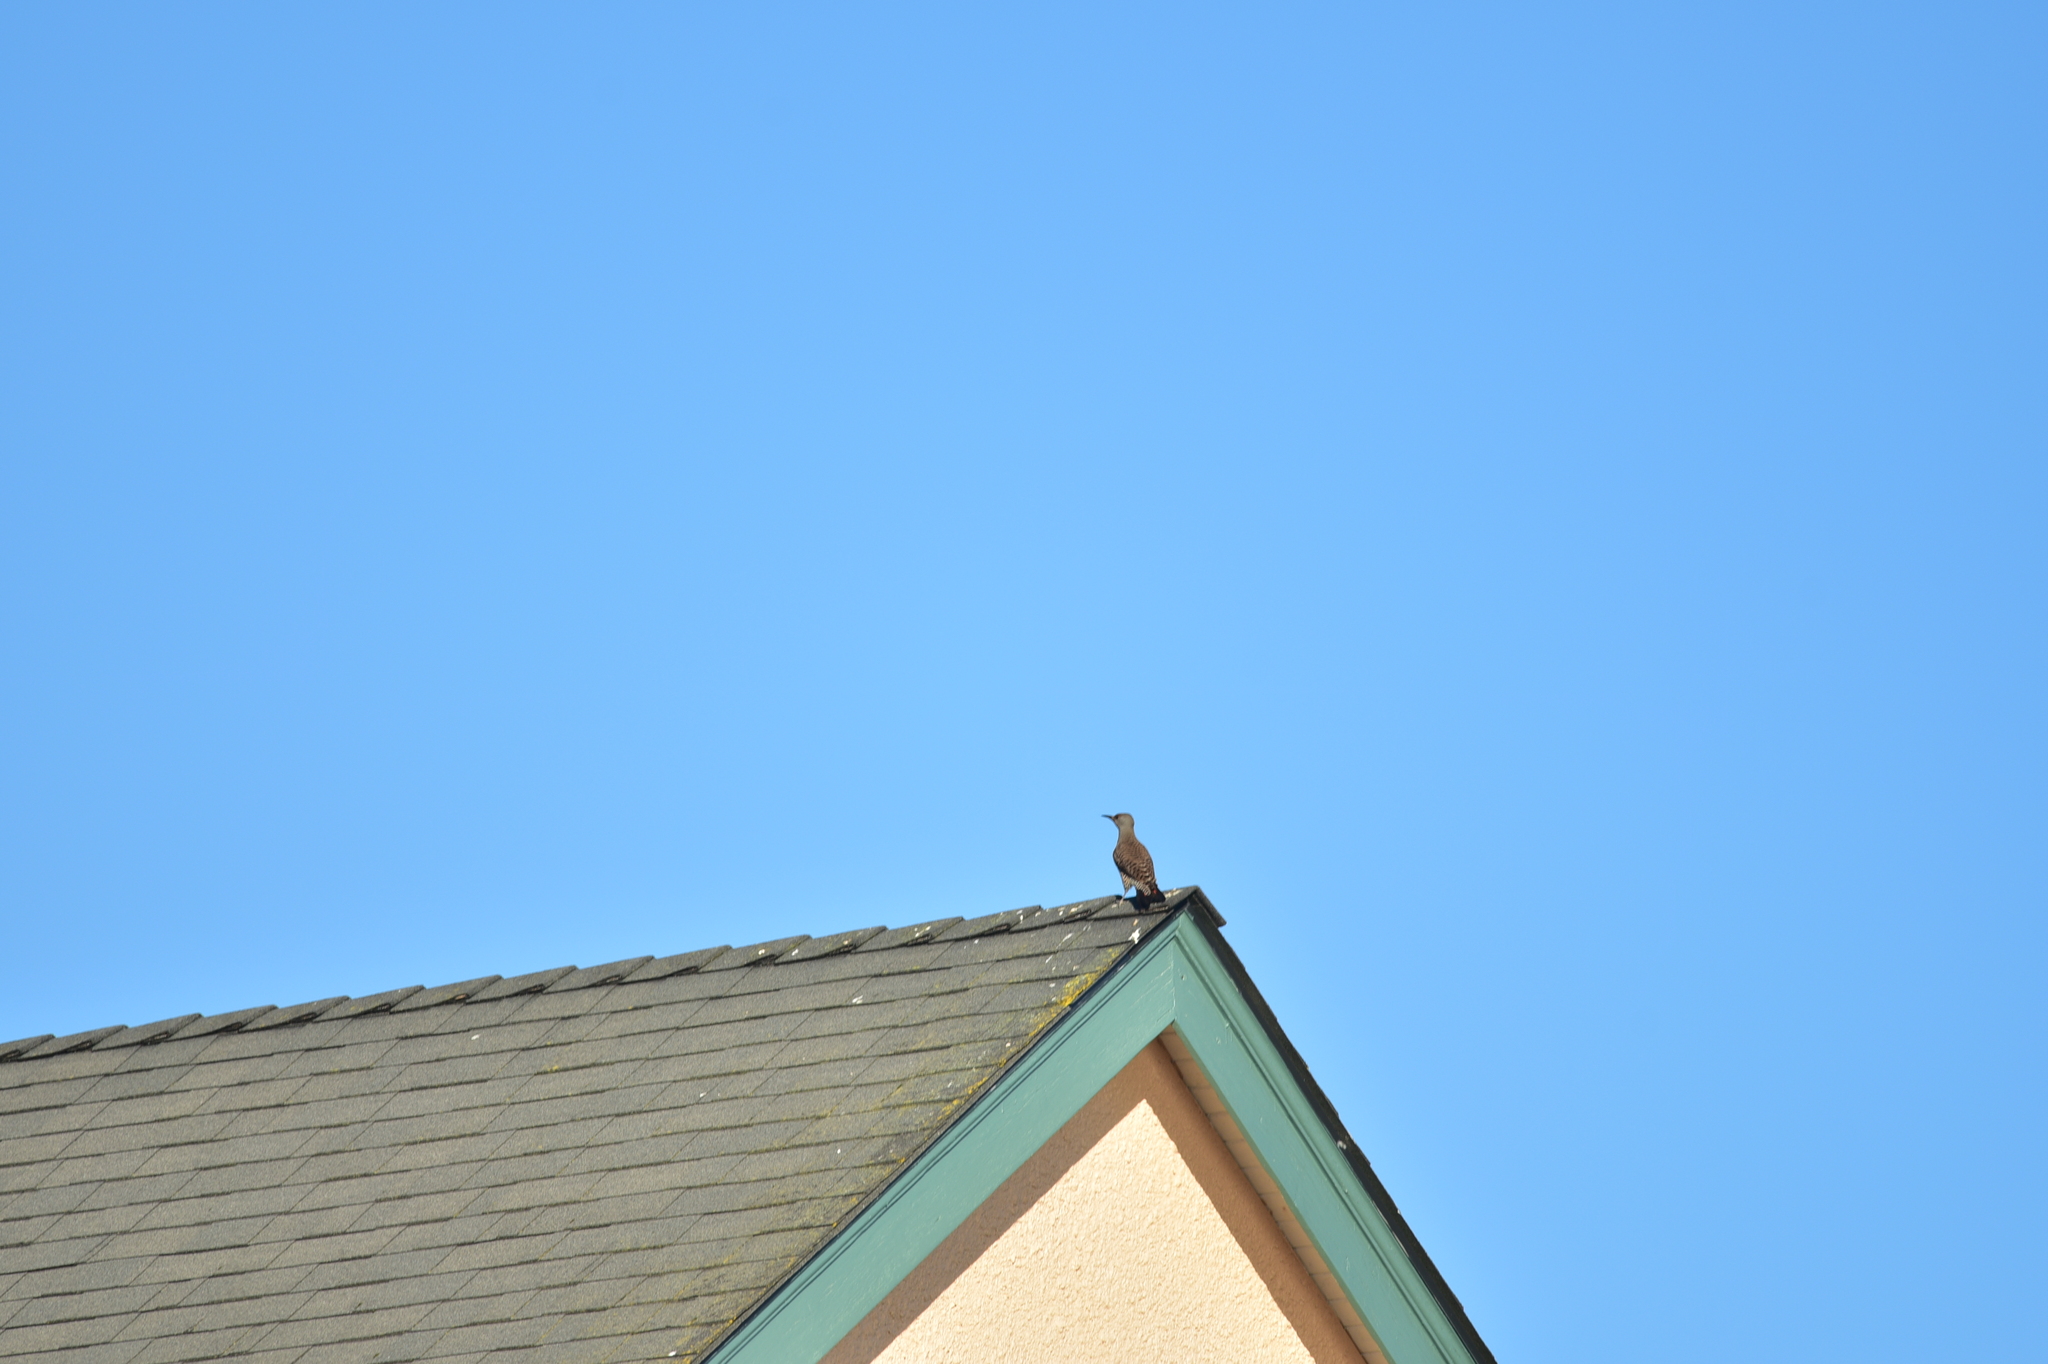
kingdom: Animalia
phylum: Chordata
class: Aves
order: Piciformes
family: Picidae
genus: Colaptes
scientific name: Colaptes auratus
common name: Northern flicker
